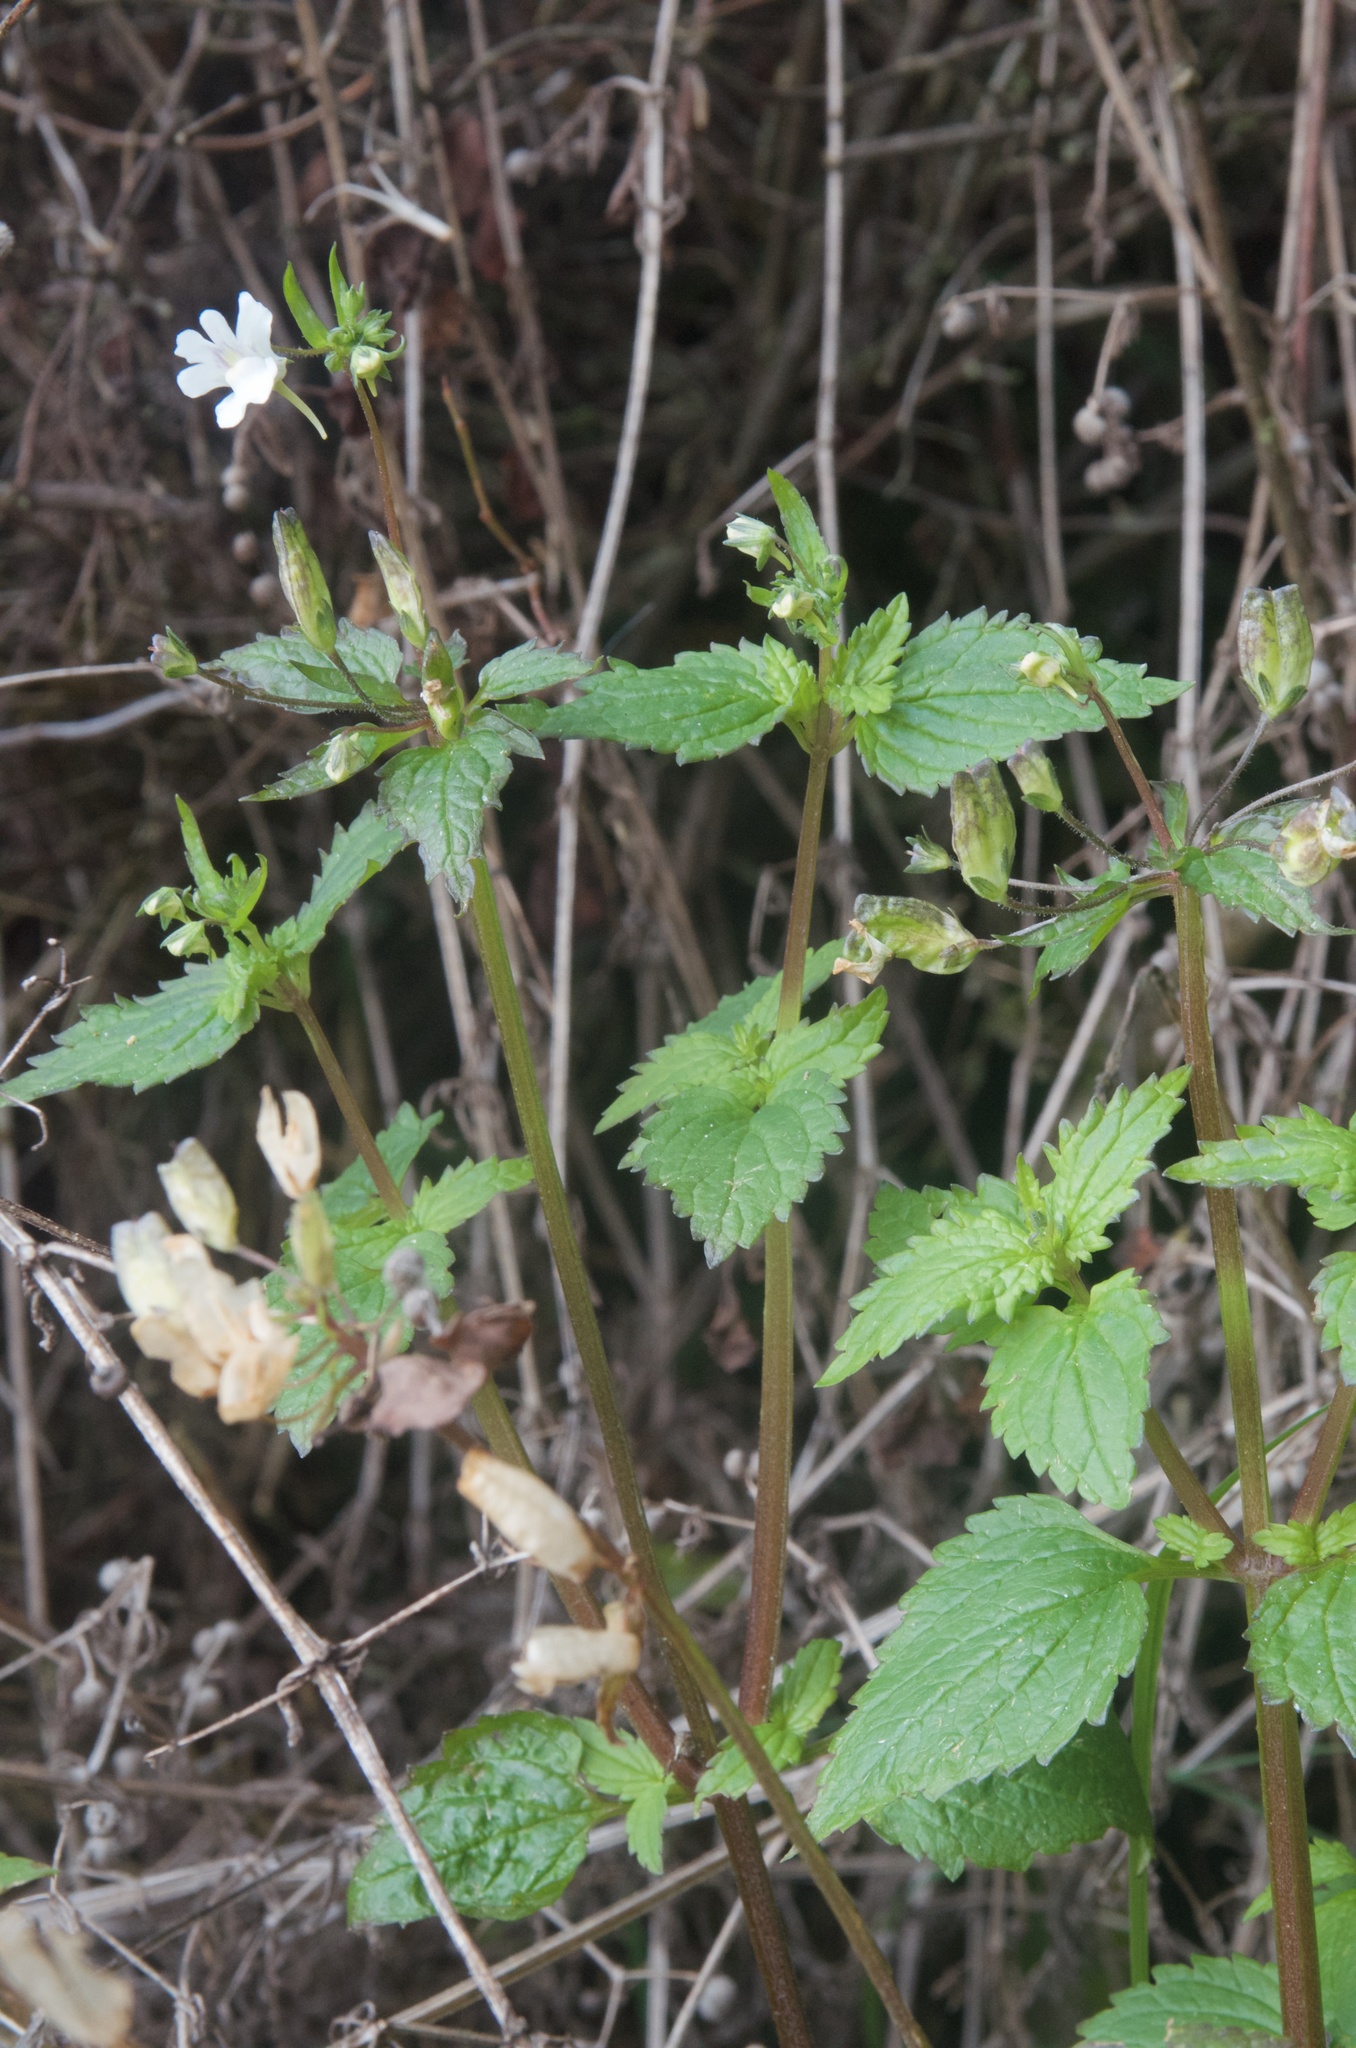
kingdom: Plantae
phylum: Tracheophyta
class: Magnoliopsida
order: Lamiales
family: Scrophulariaceae
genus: Nemesia
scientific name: Nemesia floribunda
